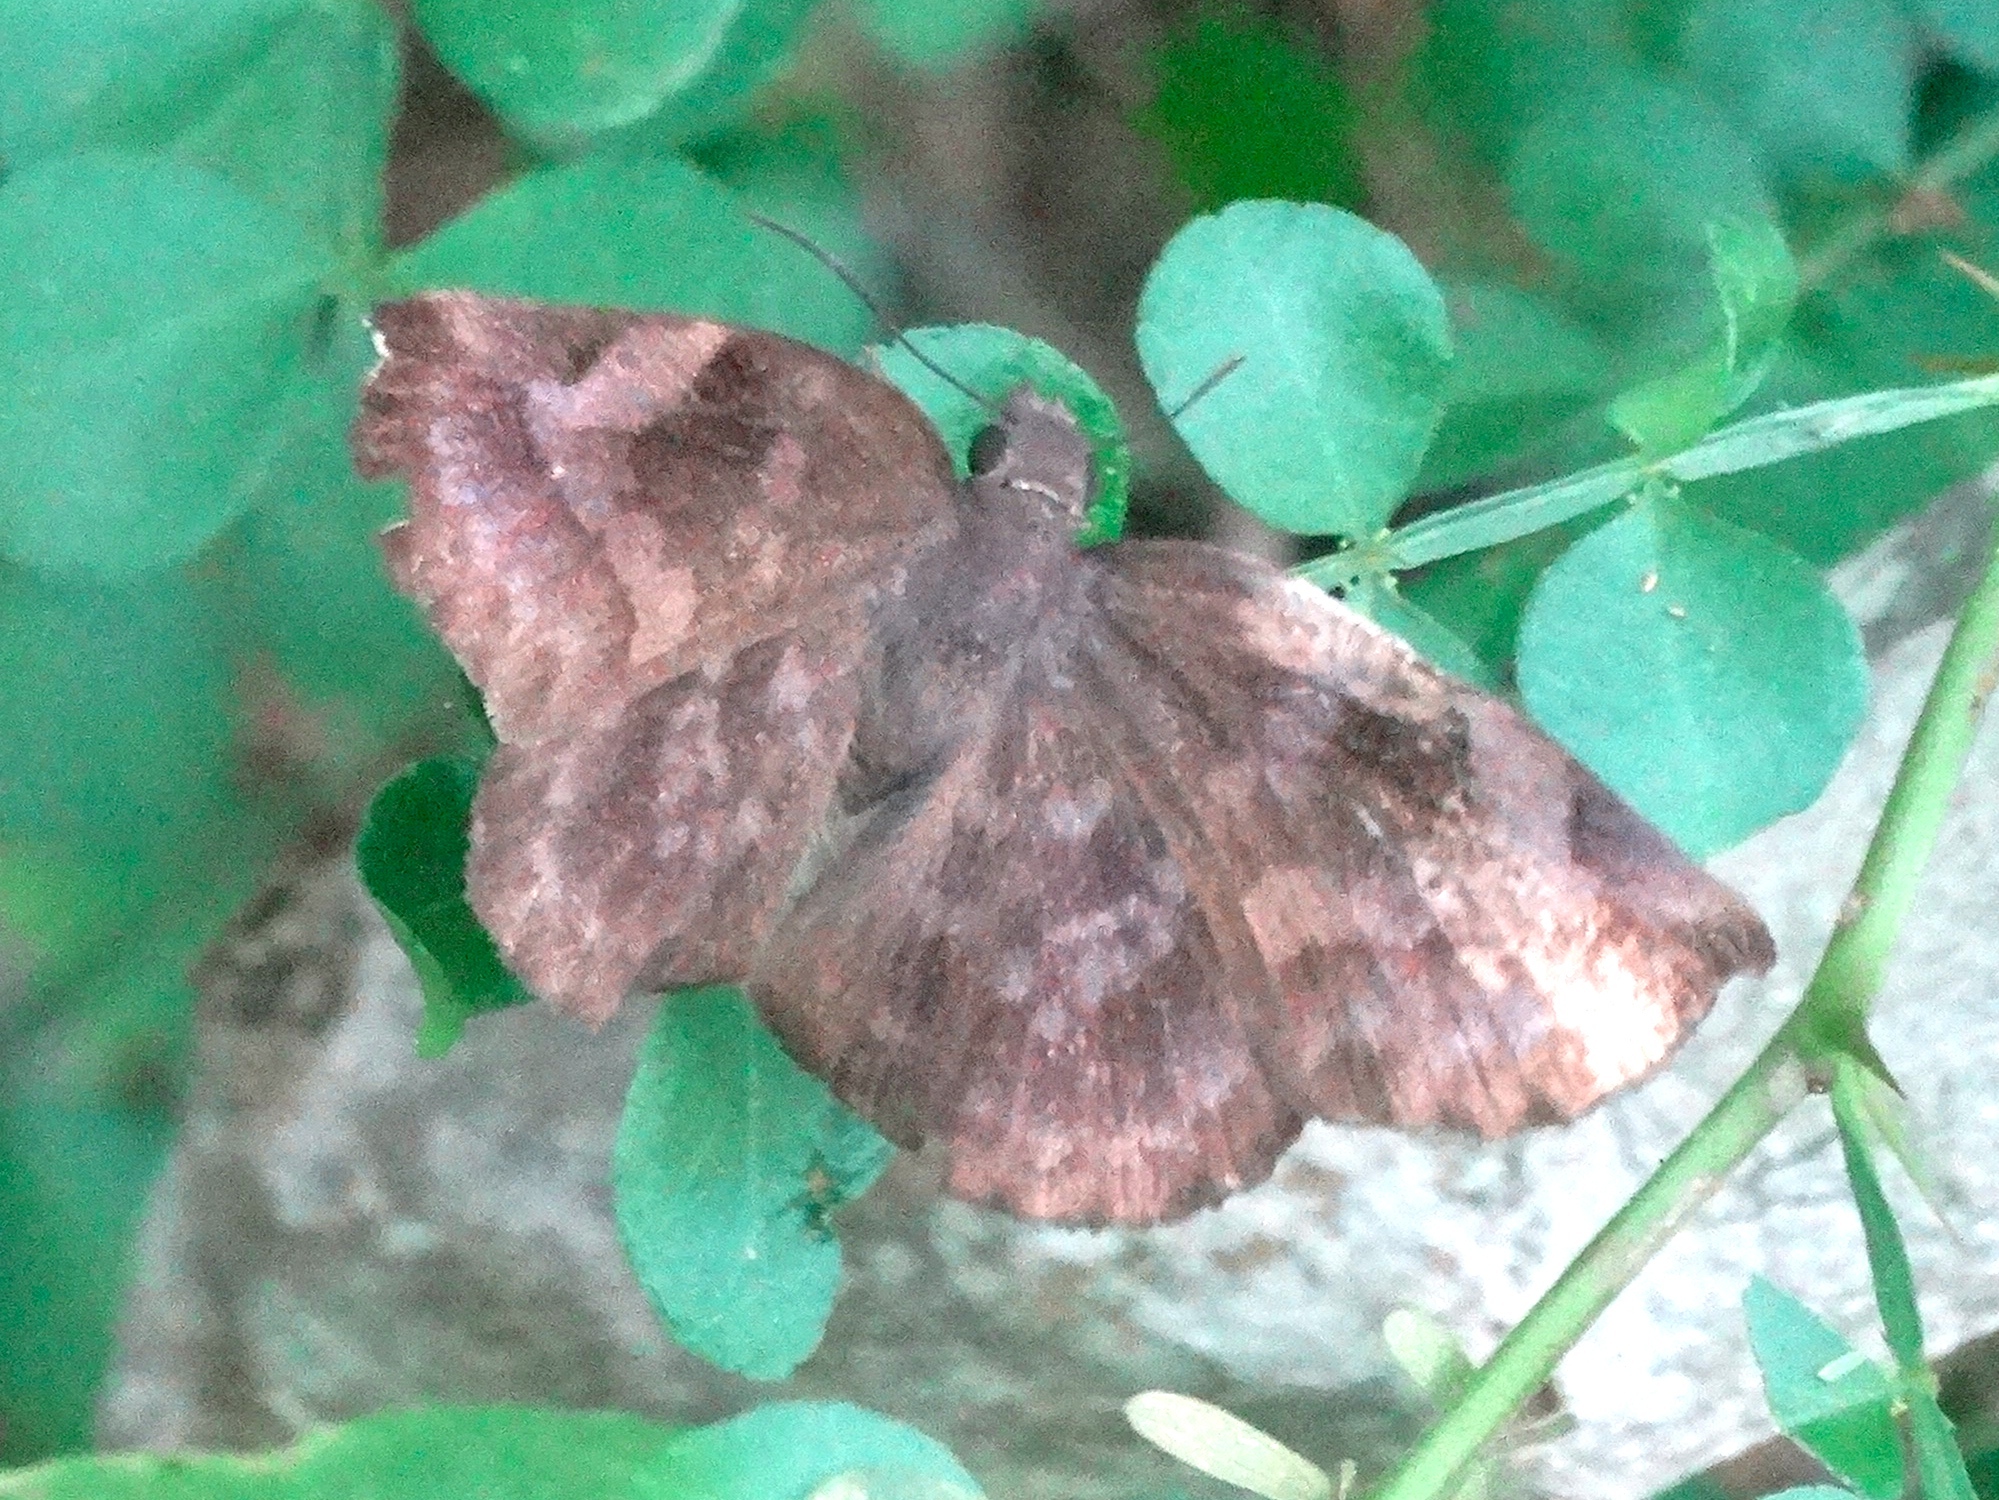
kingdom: Animalia
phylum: Arthropoda
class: Insecta
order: Lepidoptera
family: Hesperiidae
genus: Achlyodes
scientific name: Achlyodes thraso
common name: Sickle-winged skipper
